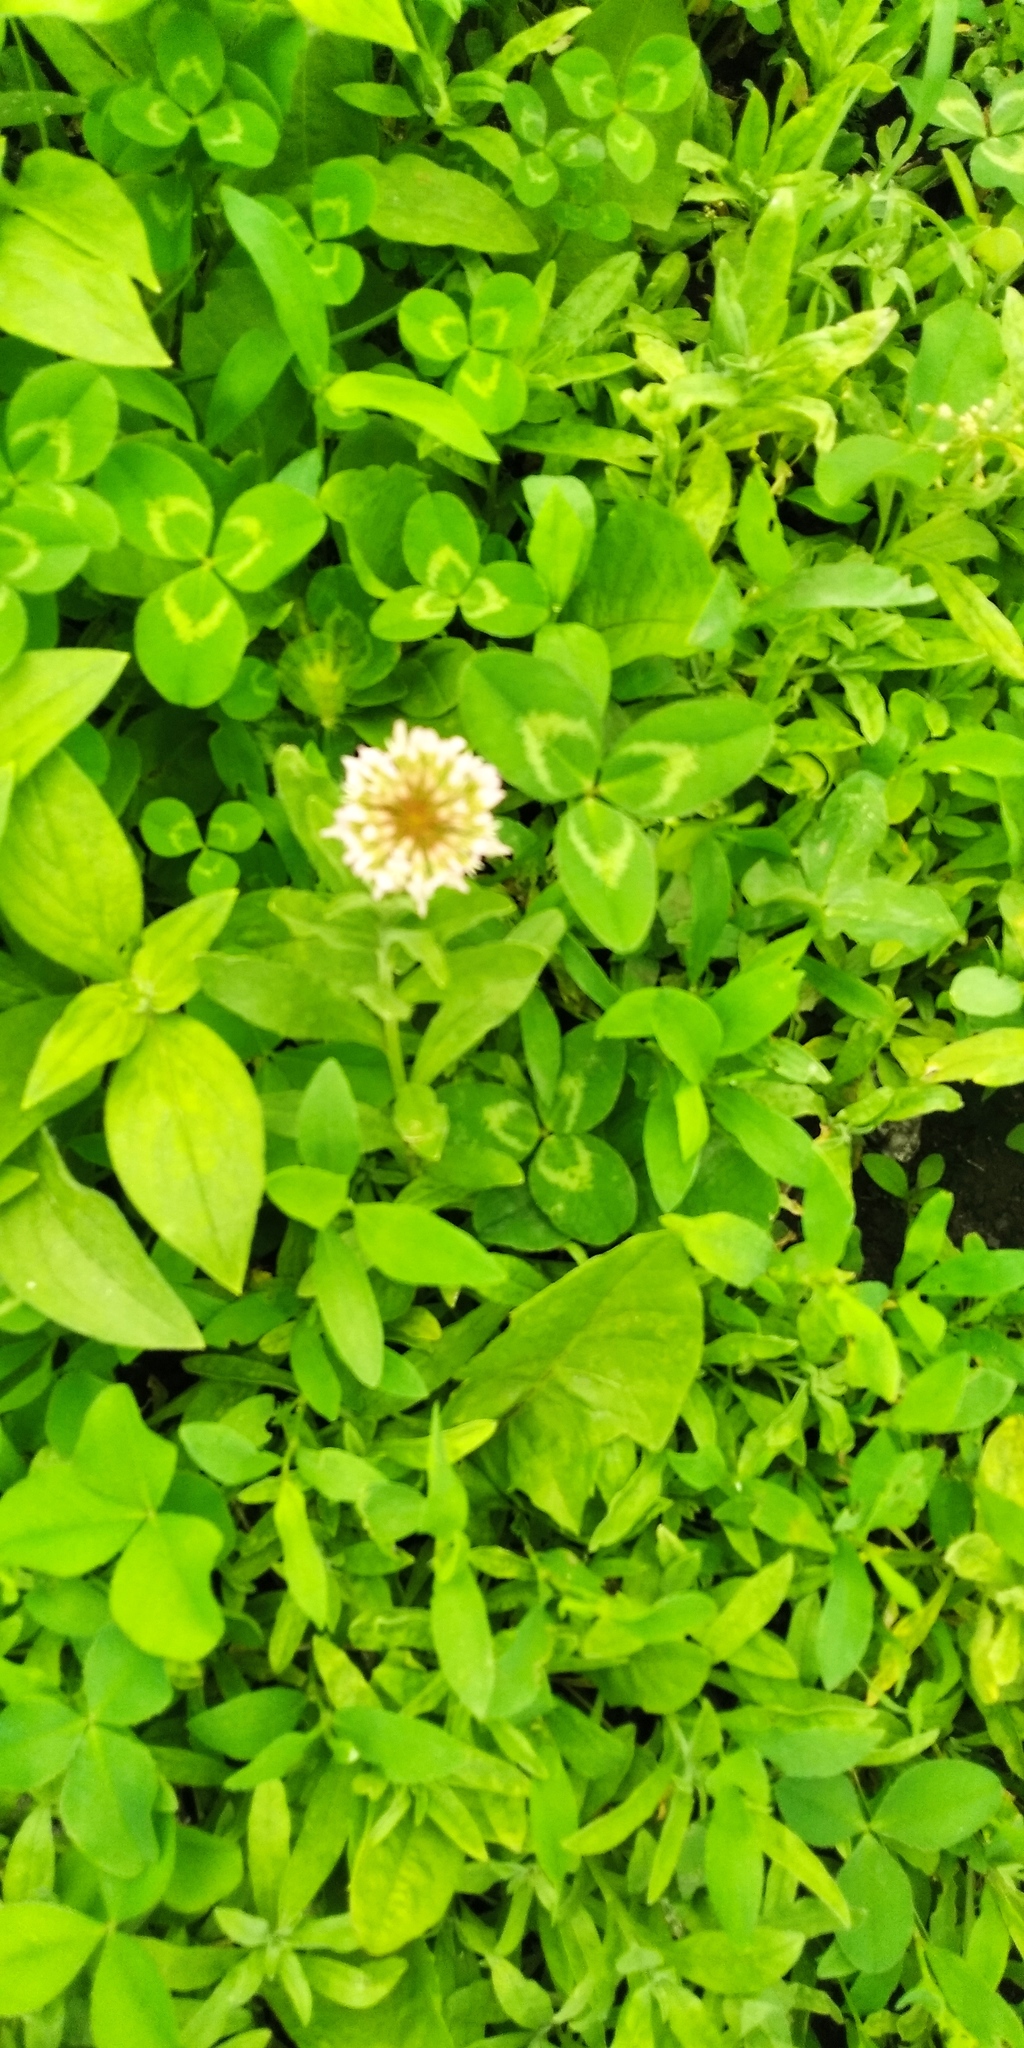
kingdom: Plantae
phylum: Tracheophyta
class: Magnoliopsida
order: Fabales
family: Fabaceae
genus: Trifolium
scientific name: Trifolium repens
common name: White clover
